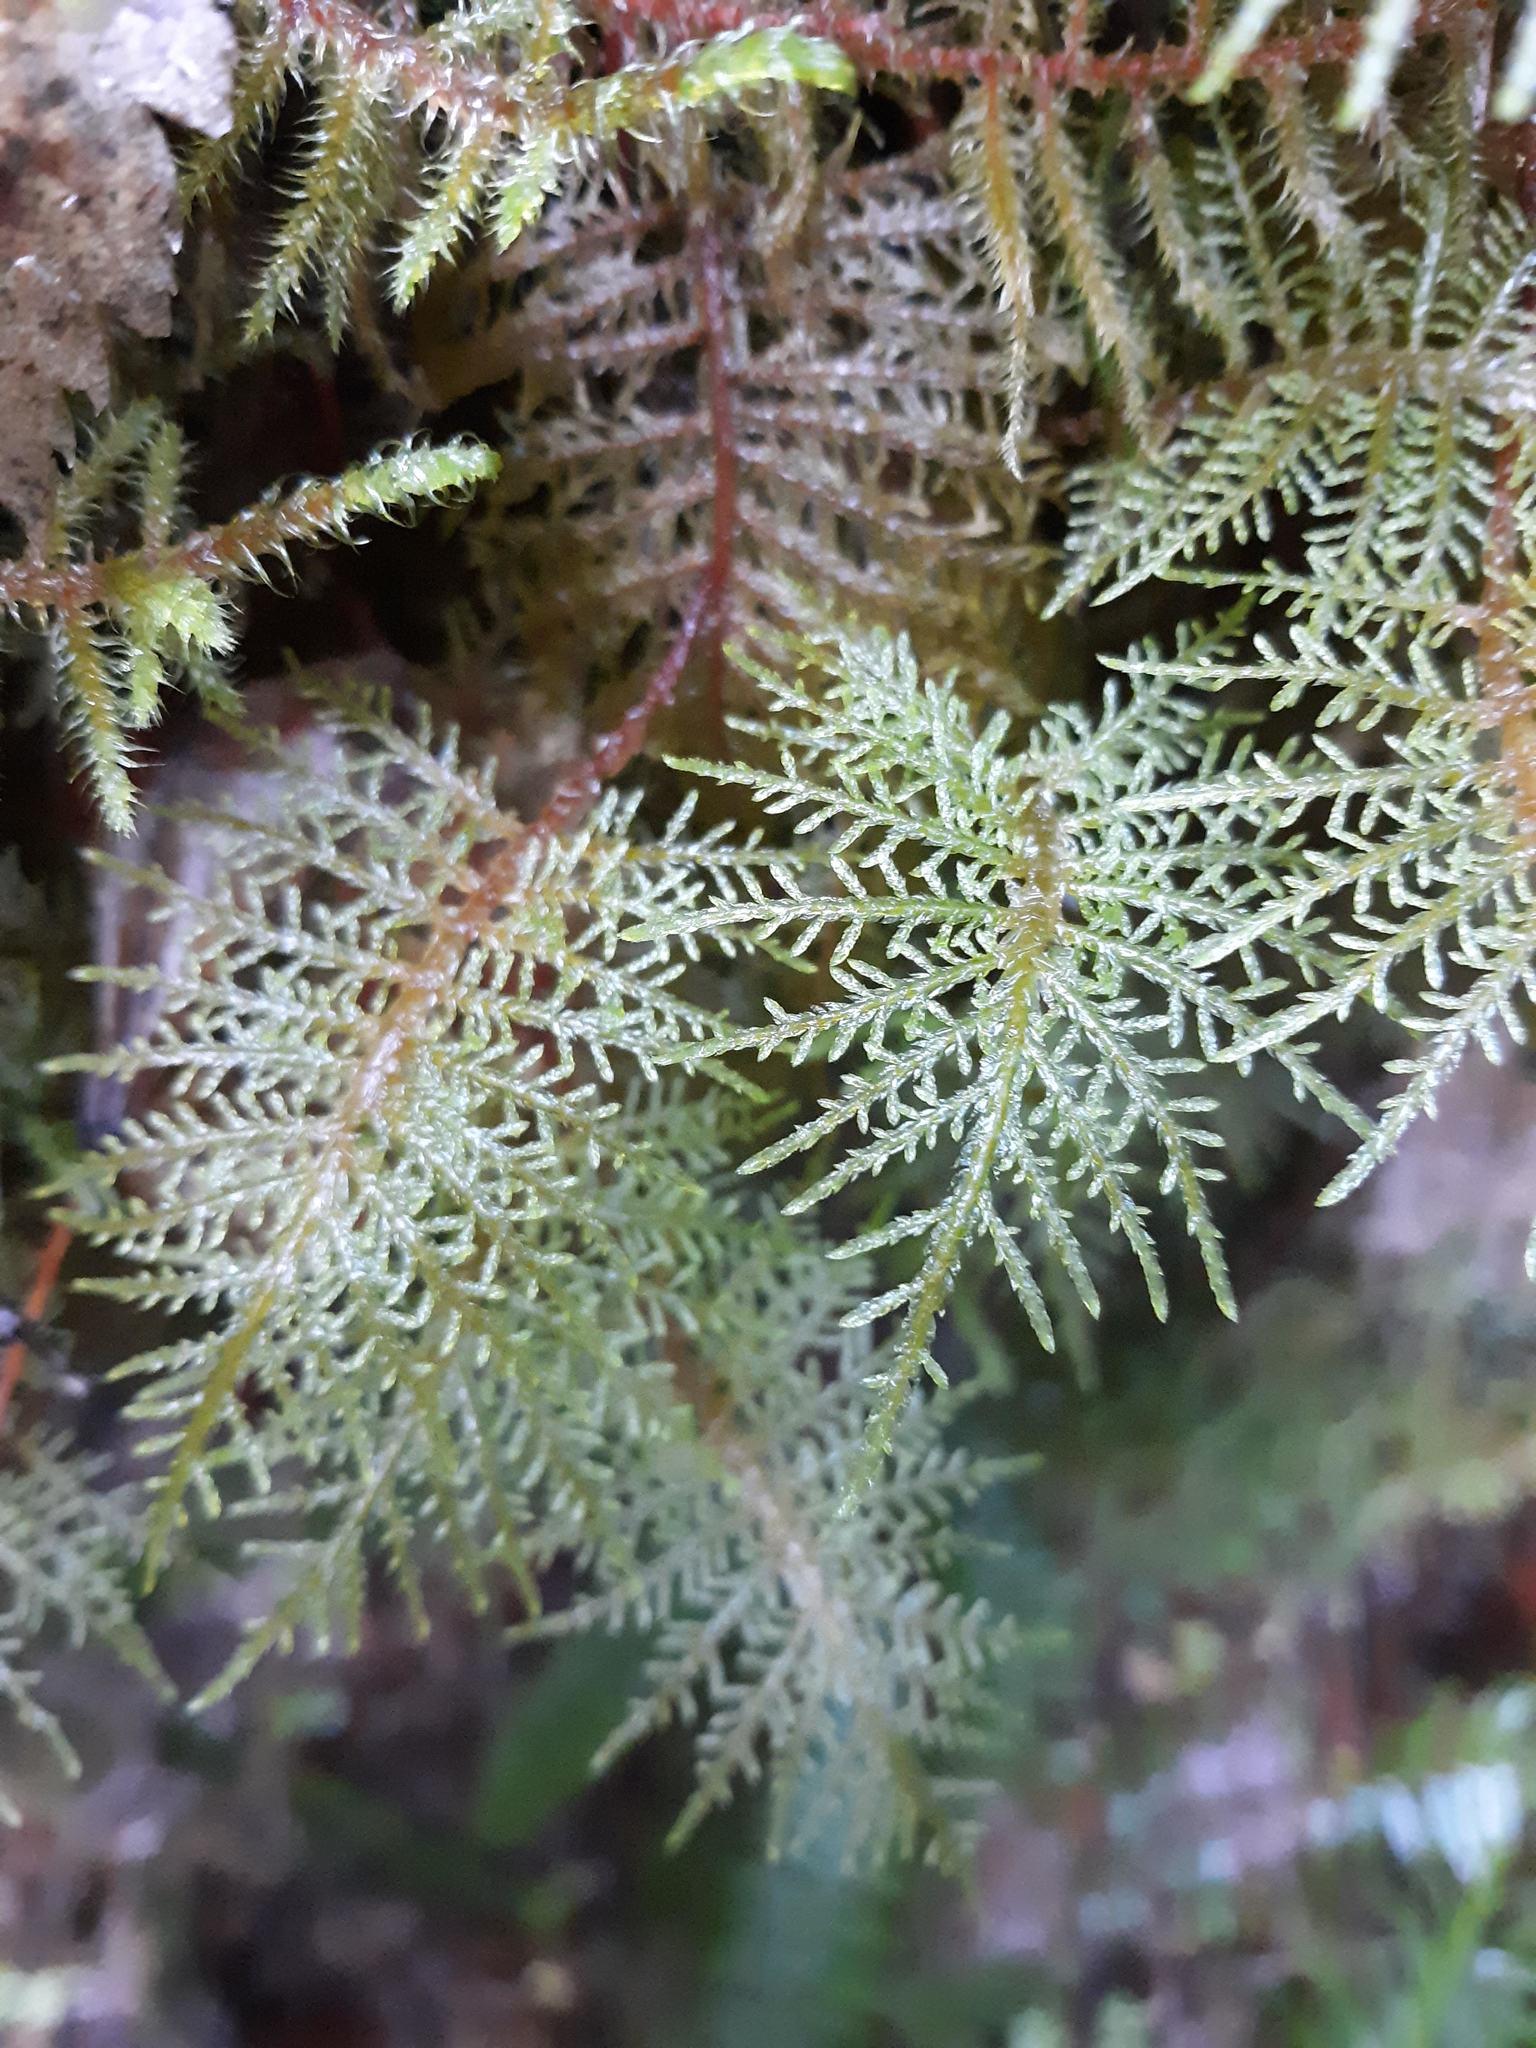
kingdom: Plantae
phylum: Bryophyta
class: Bryopsida
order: Hypnales
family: Hylocomiaceae
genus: Hylocomium
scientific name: Hylocomium splendens
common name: Stairstep moss
